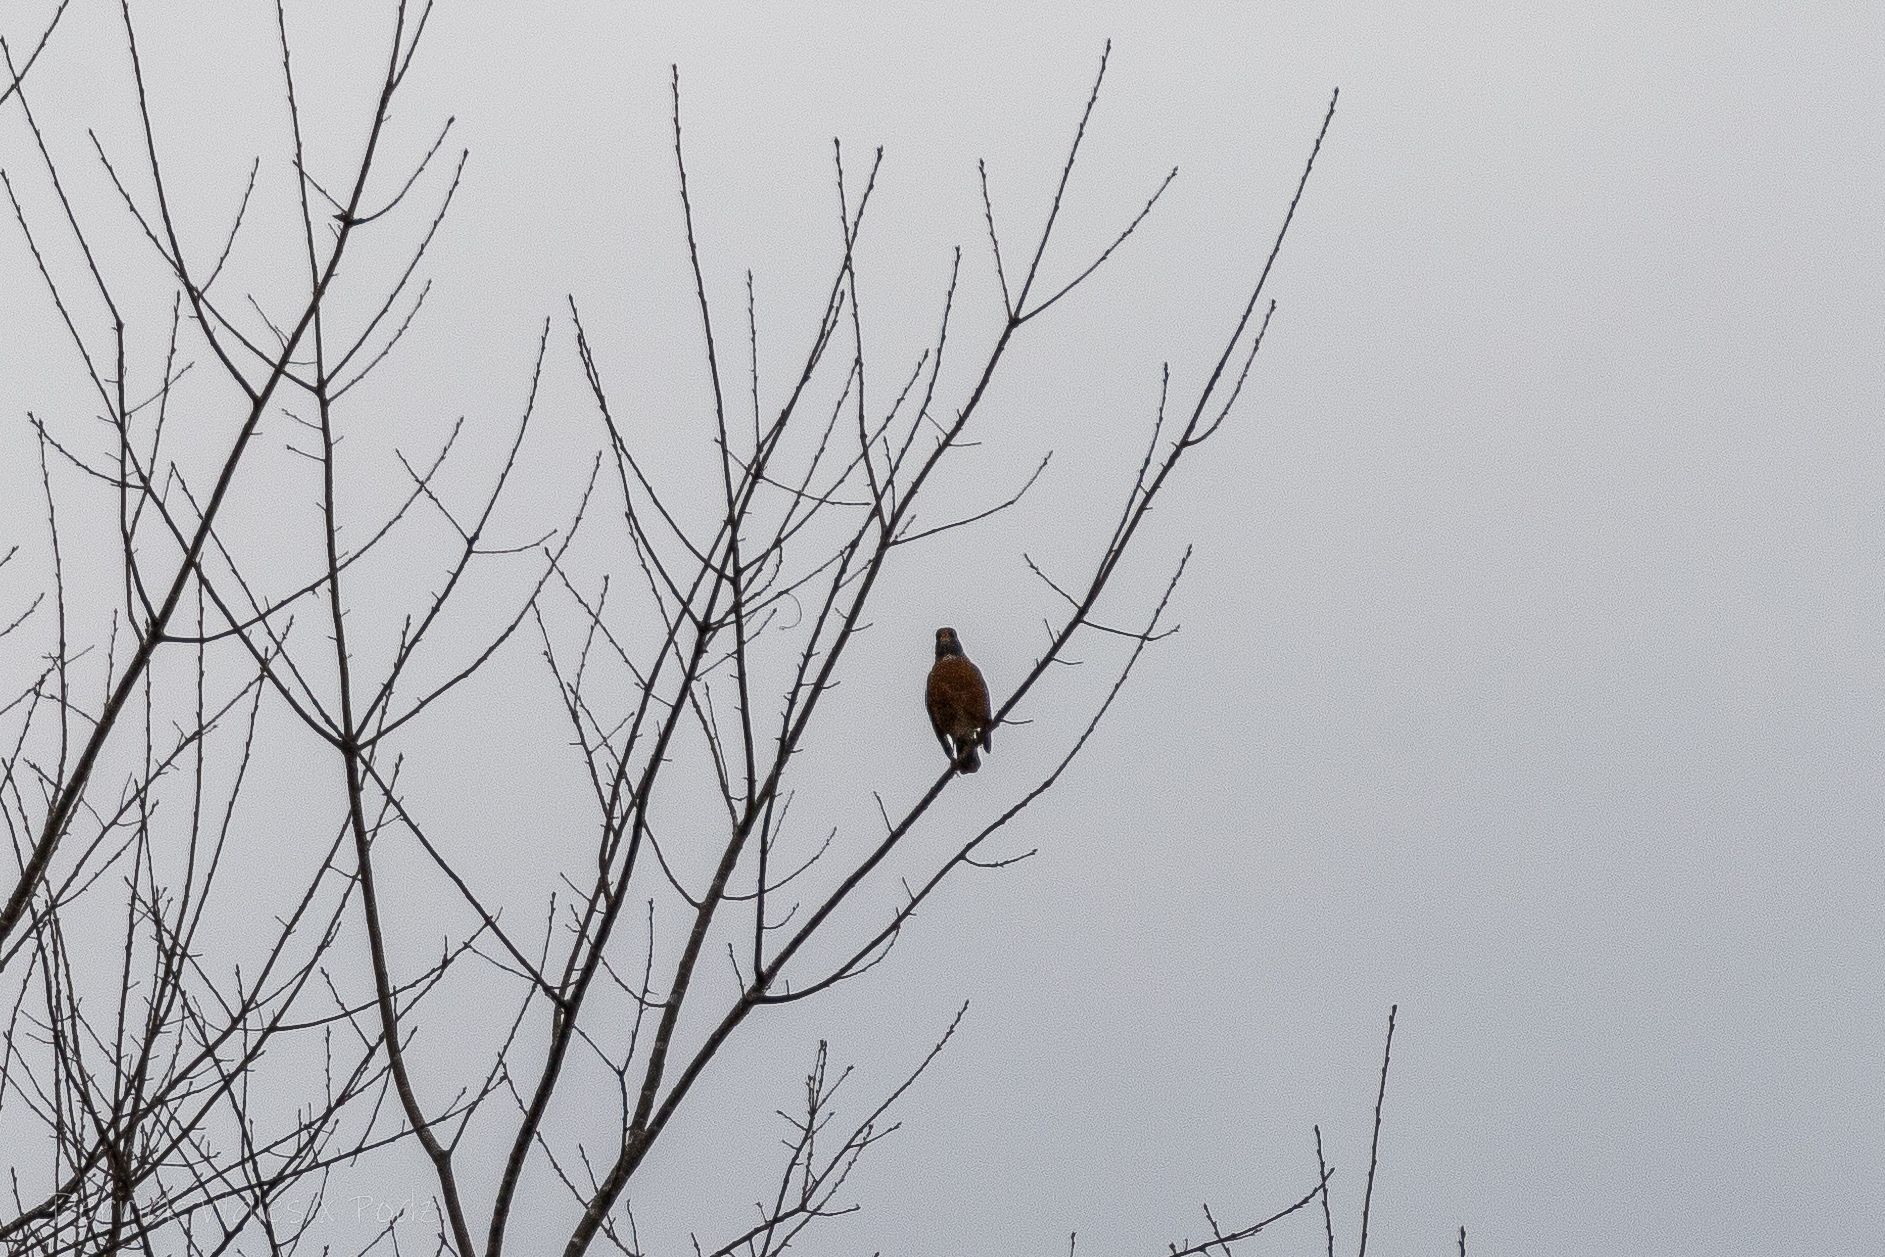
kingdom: Animalia
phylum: Chordata
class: Aves
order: Passeriformes
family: Turdidae
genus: Turdus
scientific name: Turdus migratorius
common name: American robin
